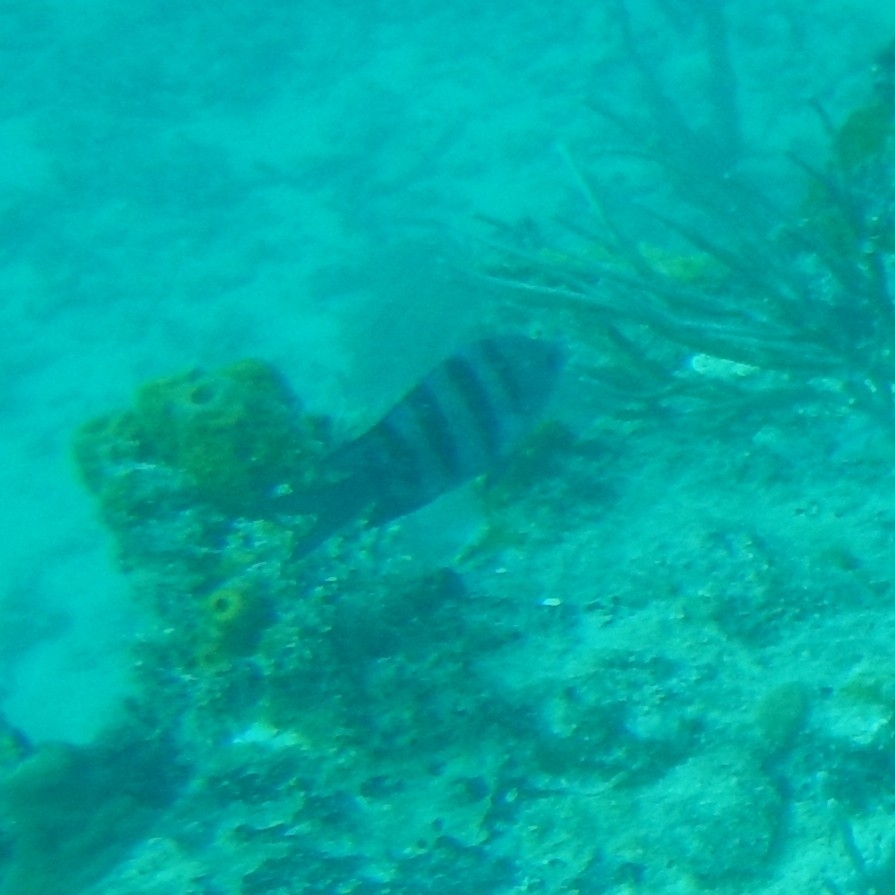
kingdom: Animalia
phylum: Chordata
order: Perciformes
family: Pomacentridae
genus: Abudefduf
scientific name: Abudefduf saxatilis
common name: Sergeant major
